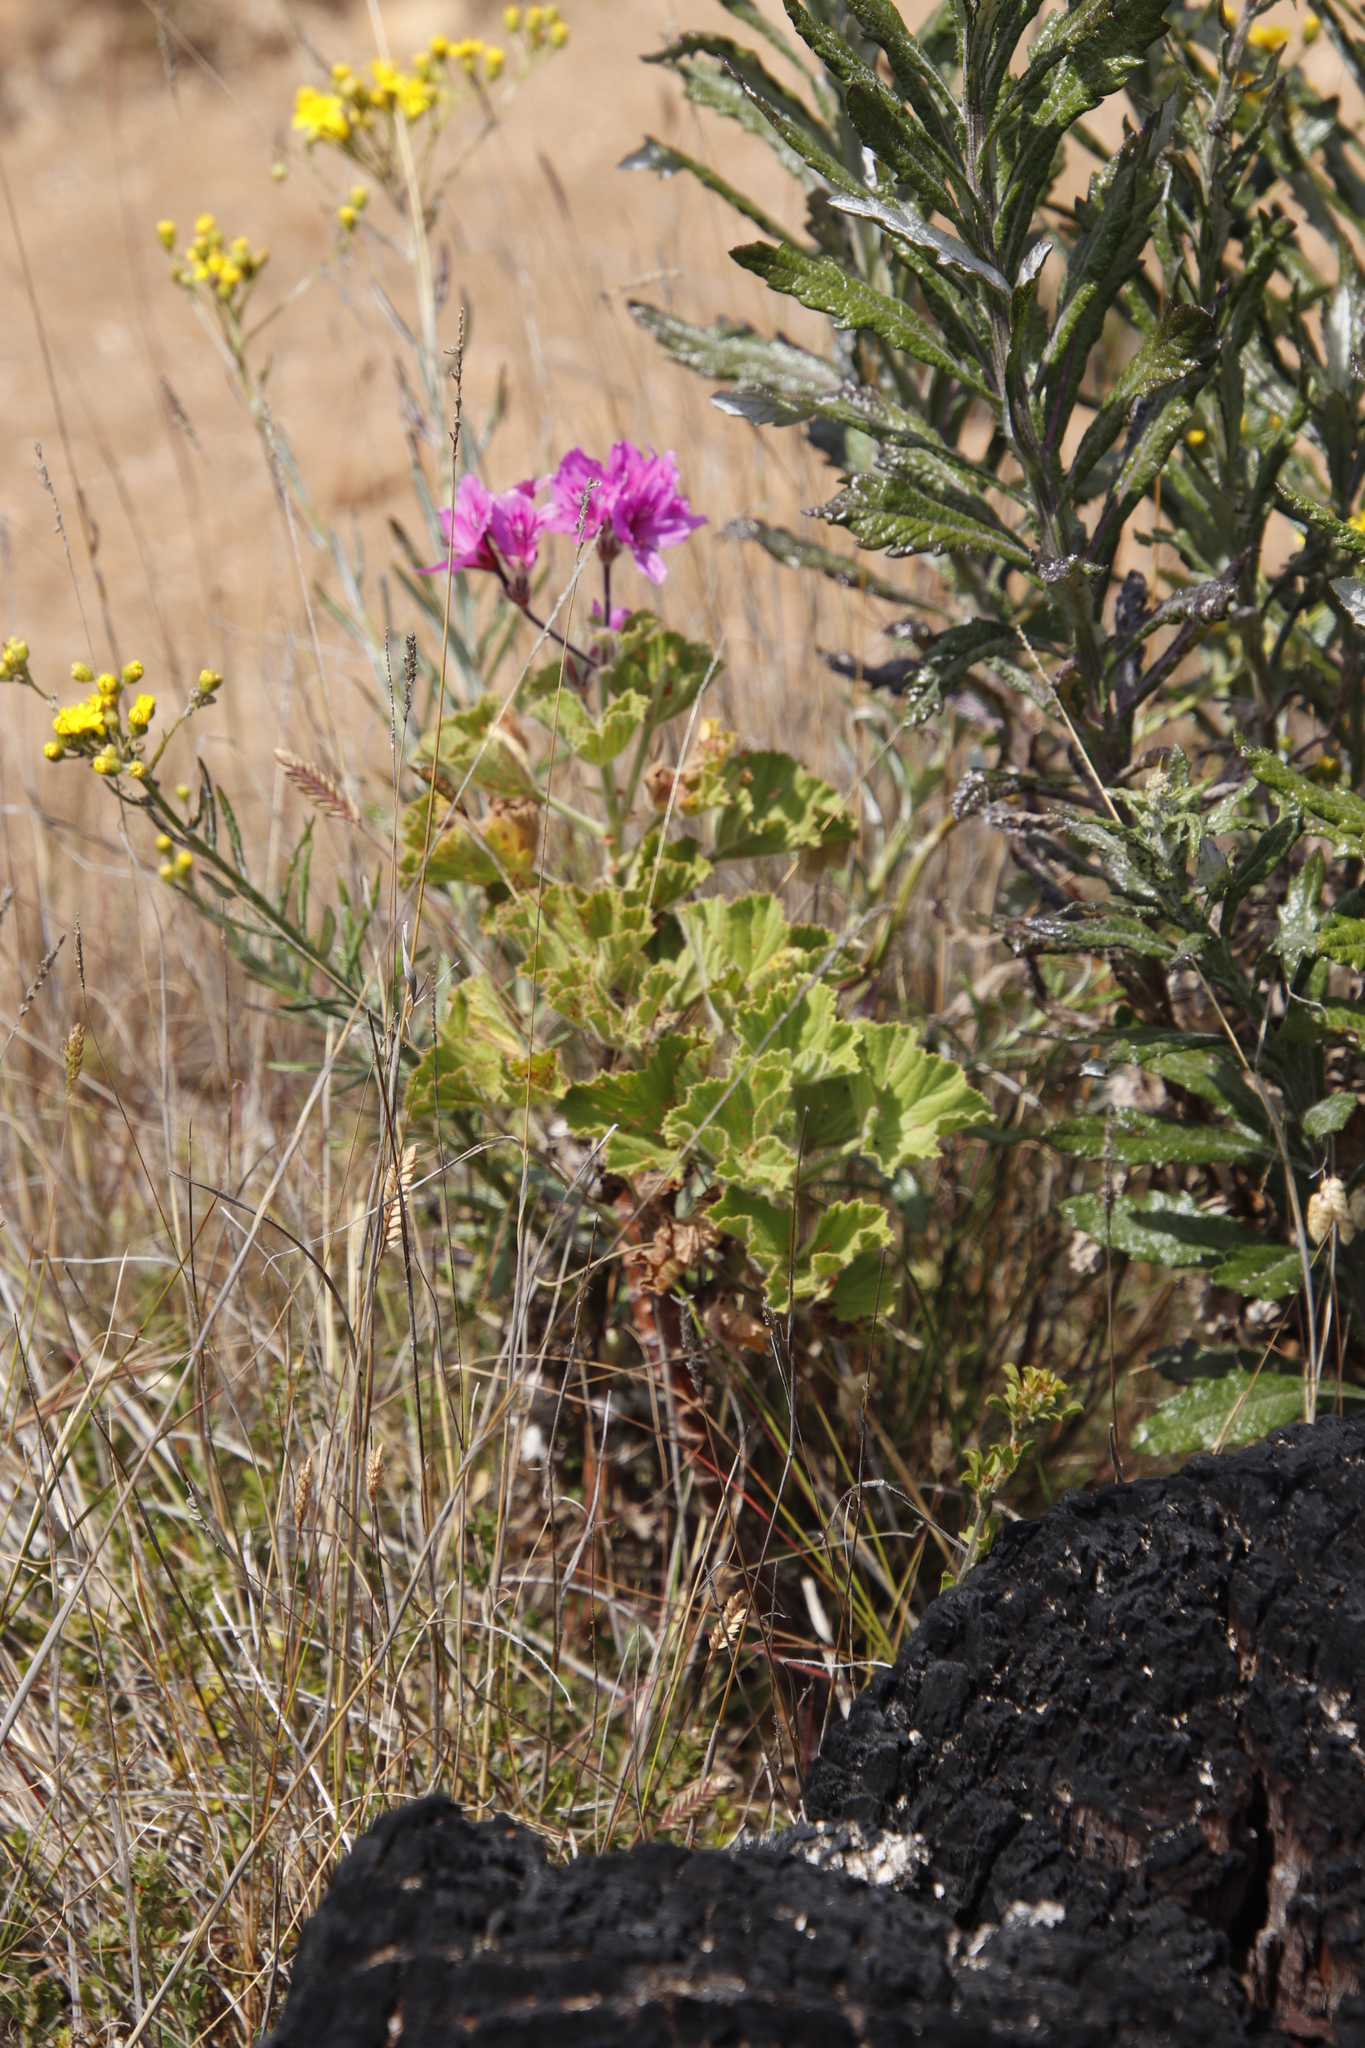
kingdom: Plantae
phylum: Tracheophyta
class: Magnoliopsida
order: Geraniales
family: Geraniaceae
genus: Pelargonium
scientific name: Pelargonium cucullatum
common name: Tree pelargonium
